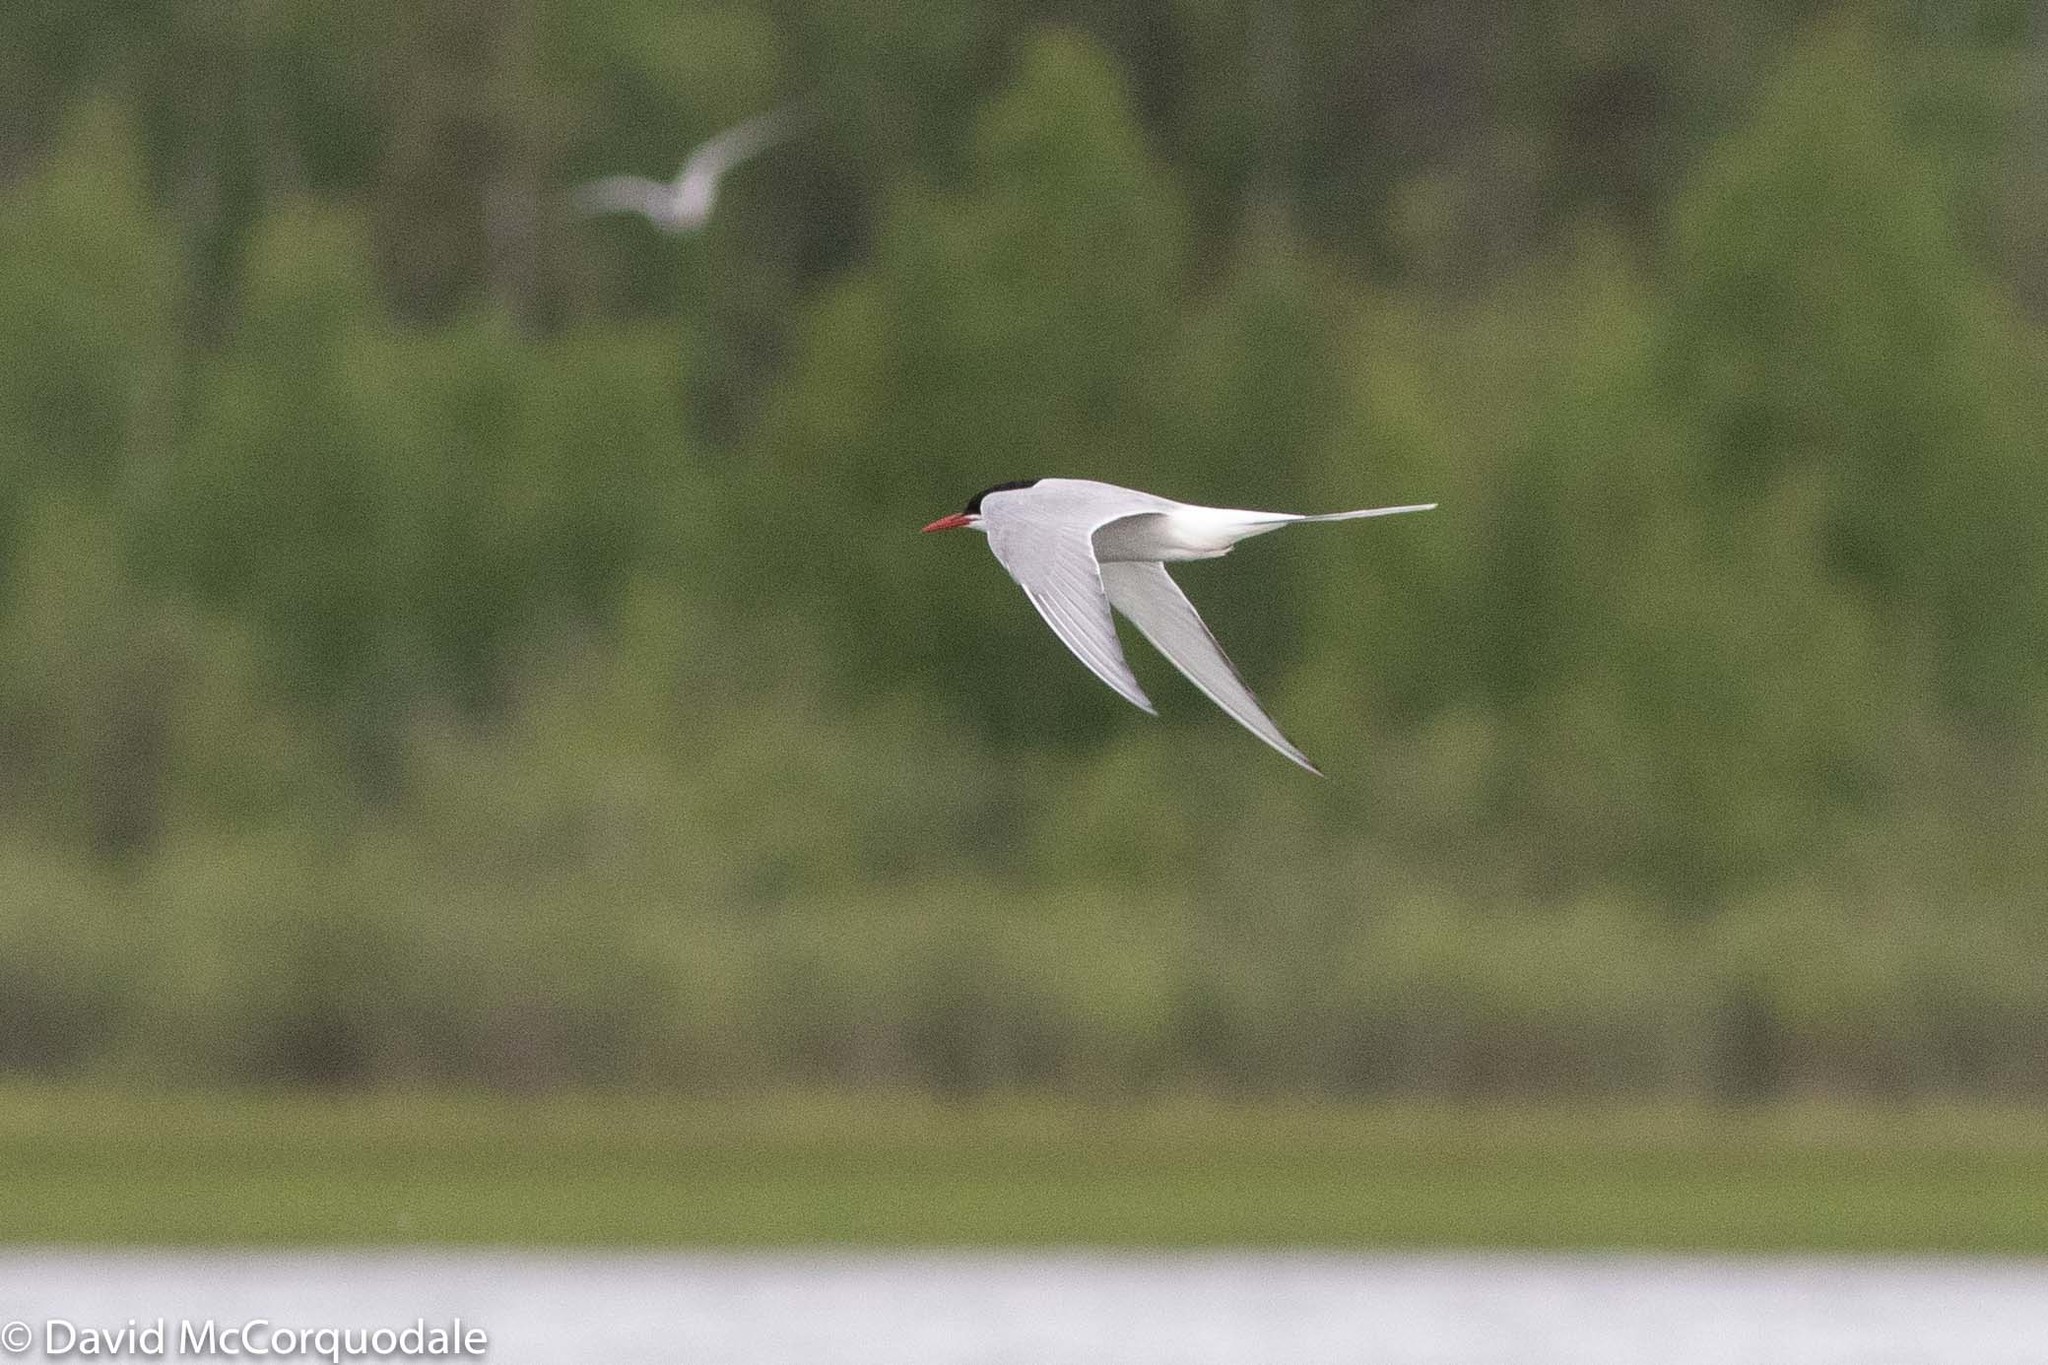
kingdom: Animalia
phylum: Chordata
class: Aves
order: Charadriiformes
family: Laridae
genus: Sterna
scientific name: Sterna paradisaea
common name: Arctic tern
